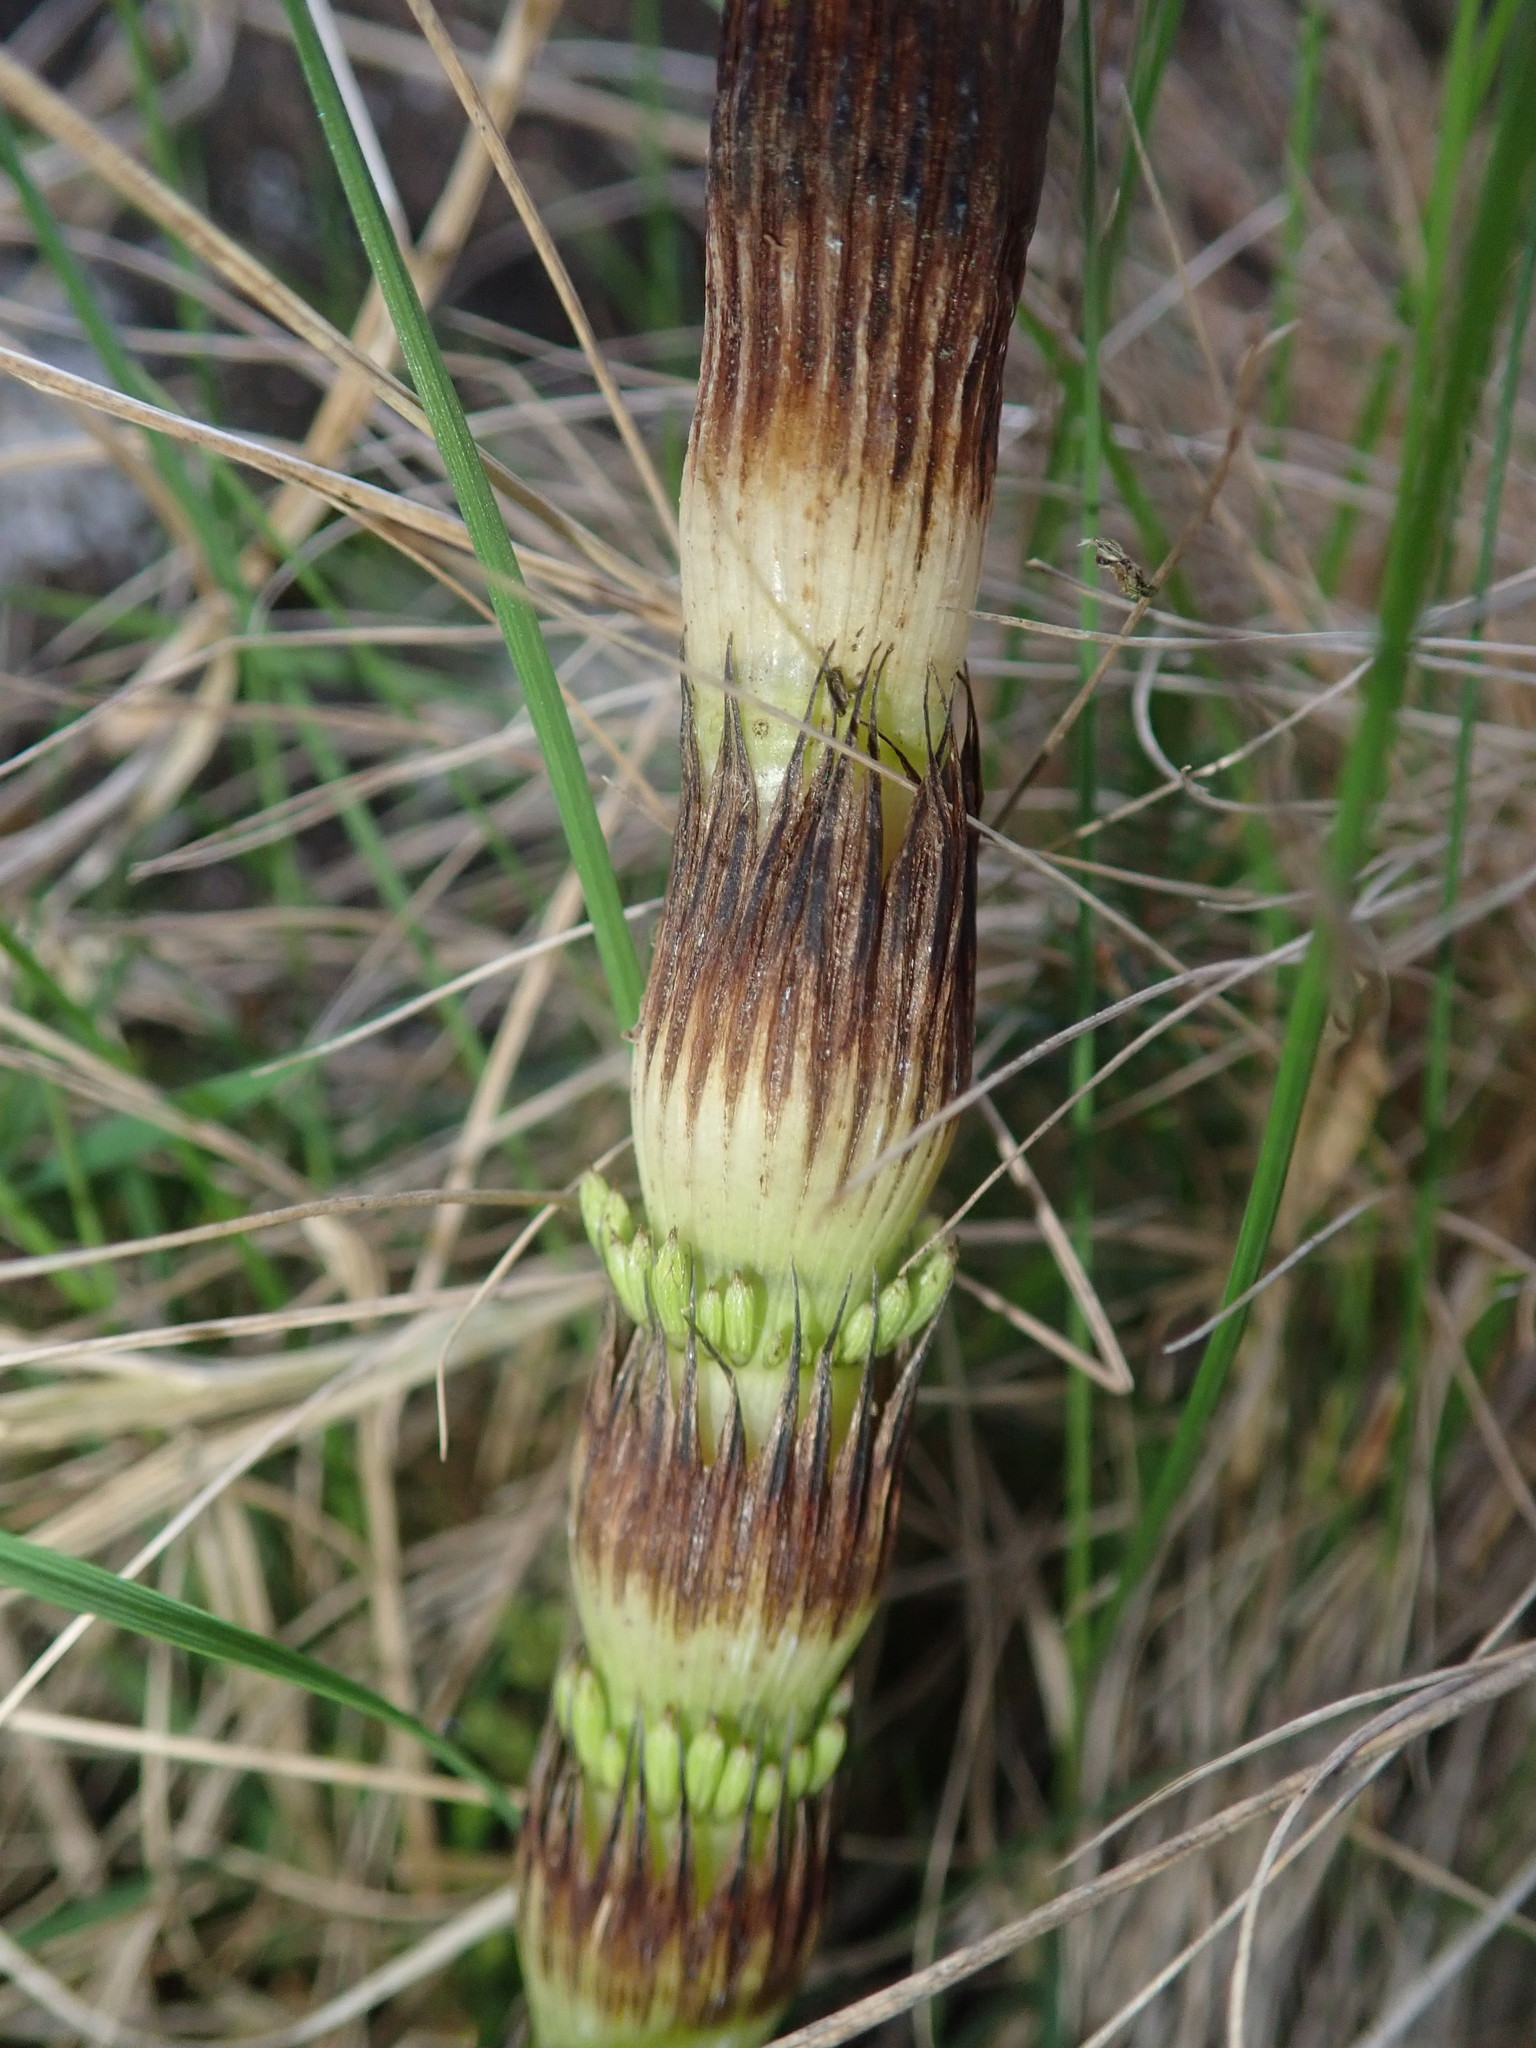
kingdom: Plantae
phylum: Tracheophyta
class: Polypodiopsida
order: Equisetales
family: Equisetaceae
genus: Equisetum
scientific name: Equisetum telmateia
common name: Great horsetail
